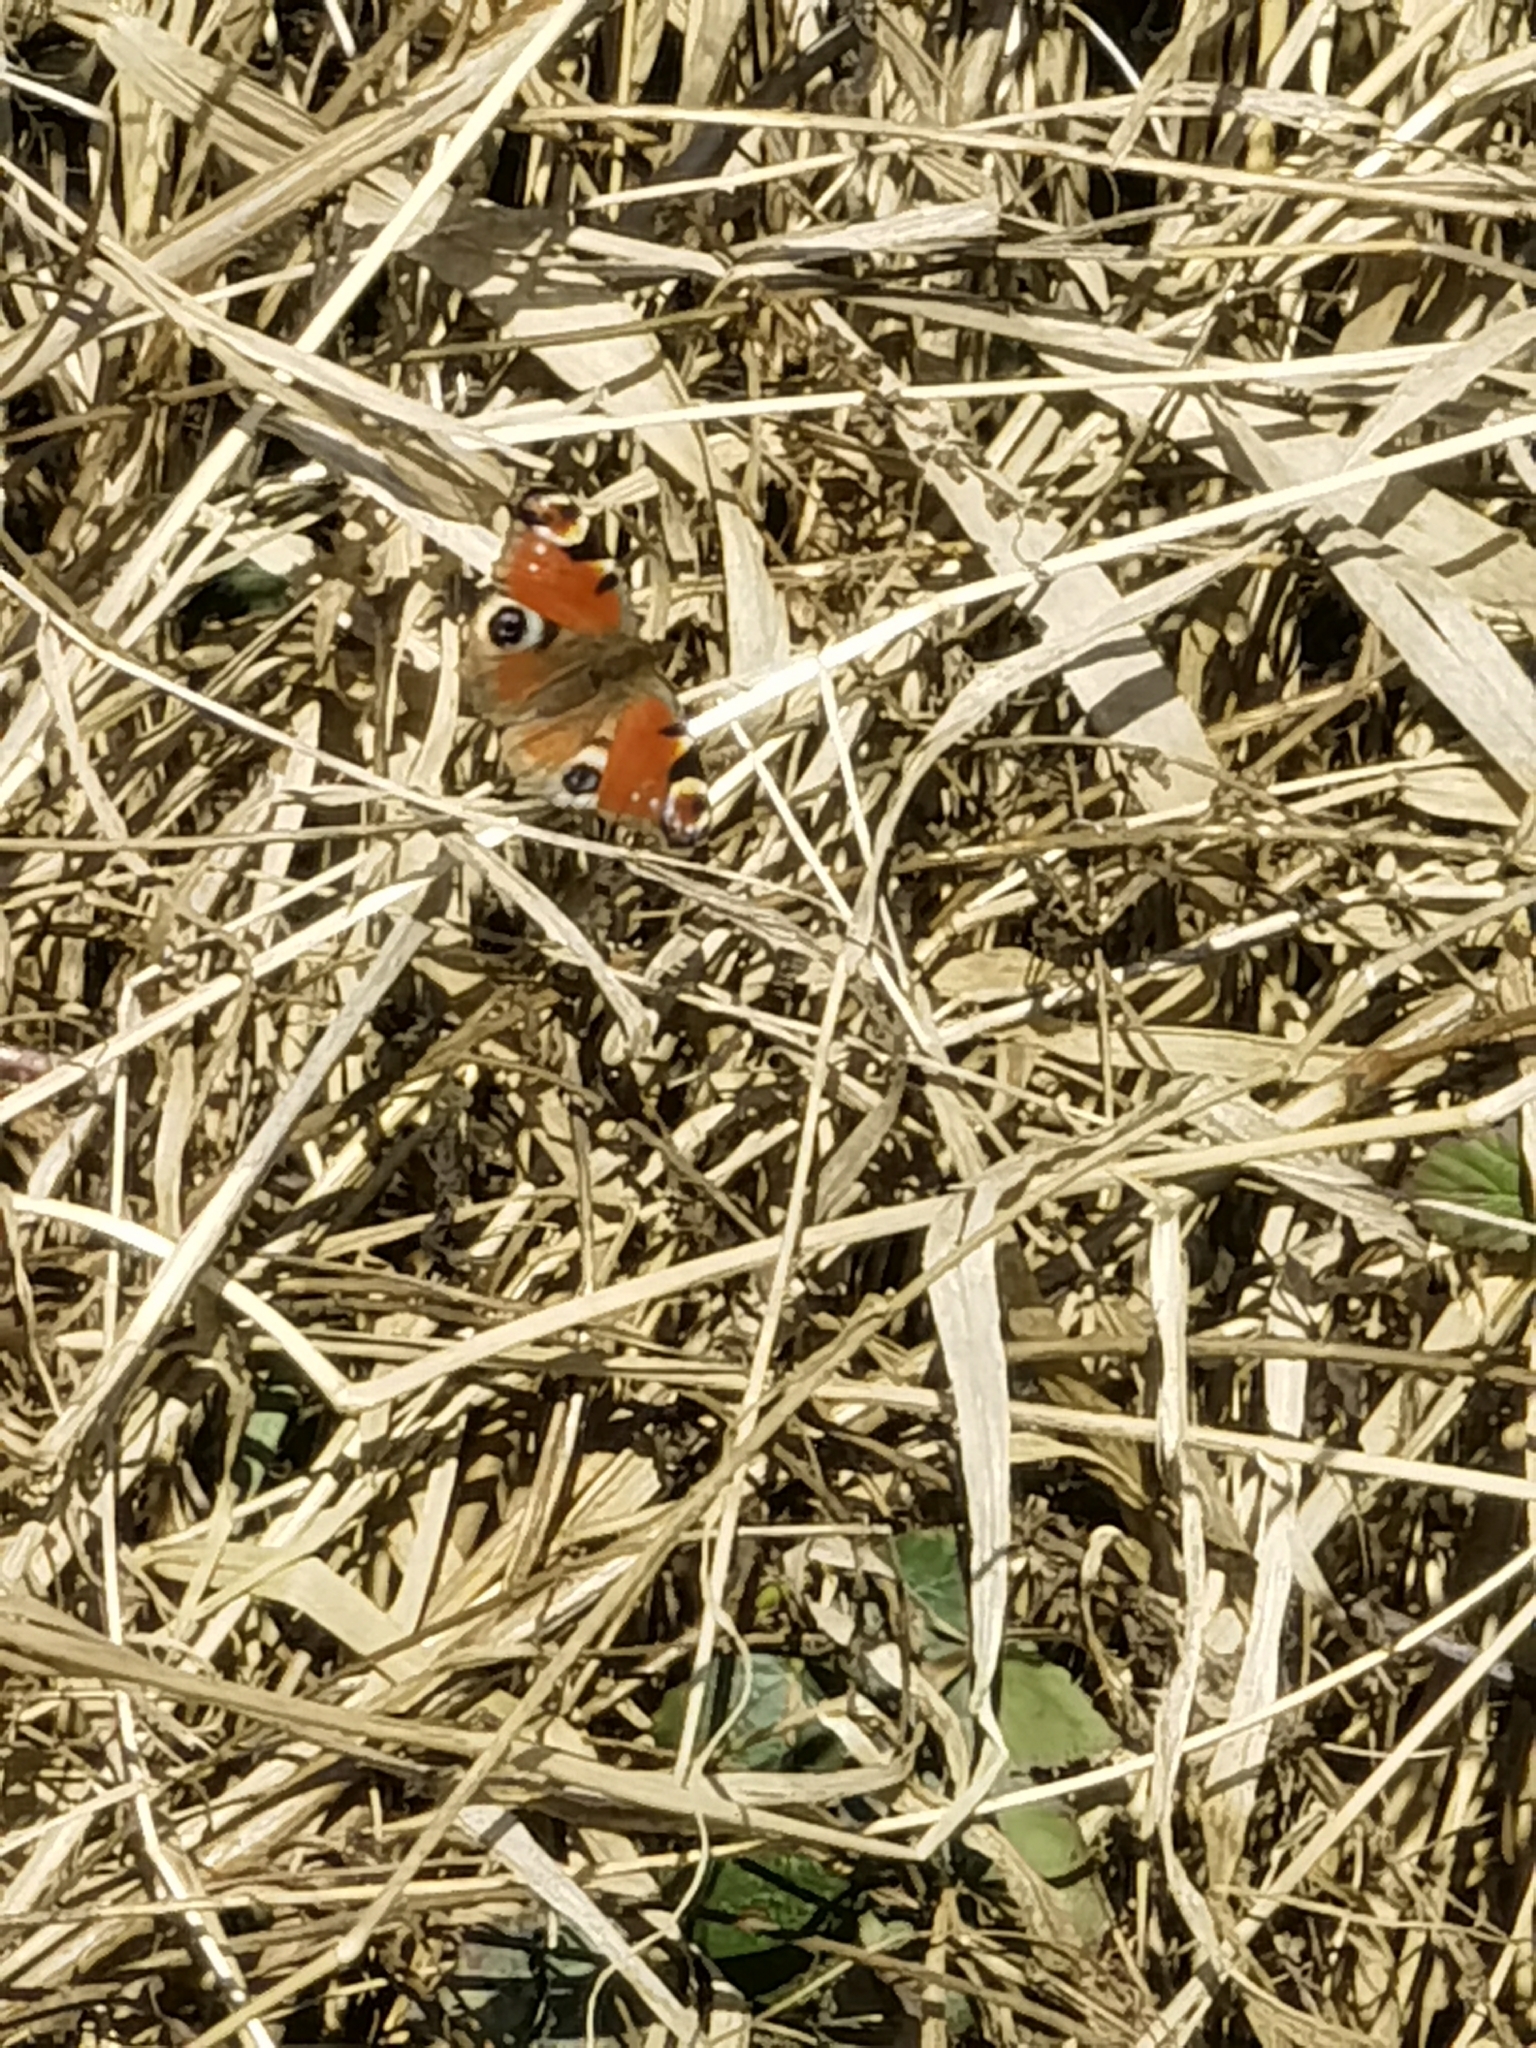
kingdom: Animalia
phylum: Arthropoda
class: Insecta
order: Lepidoptera
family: Nymphalidae
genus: Aglais
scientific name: Aglais io
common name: Peacock
